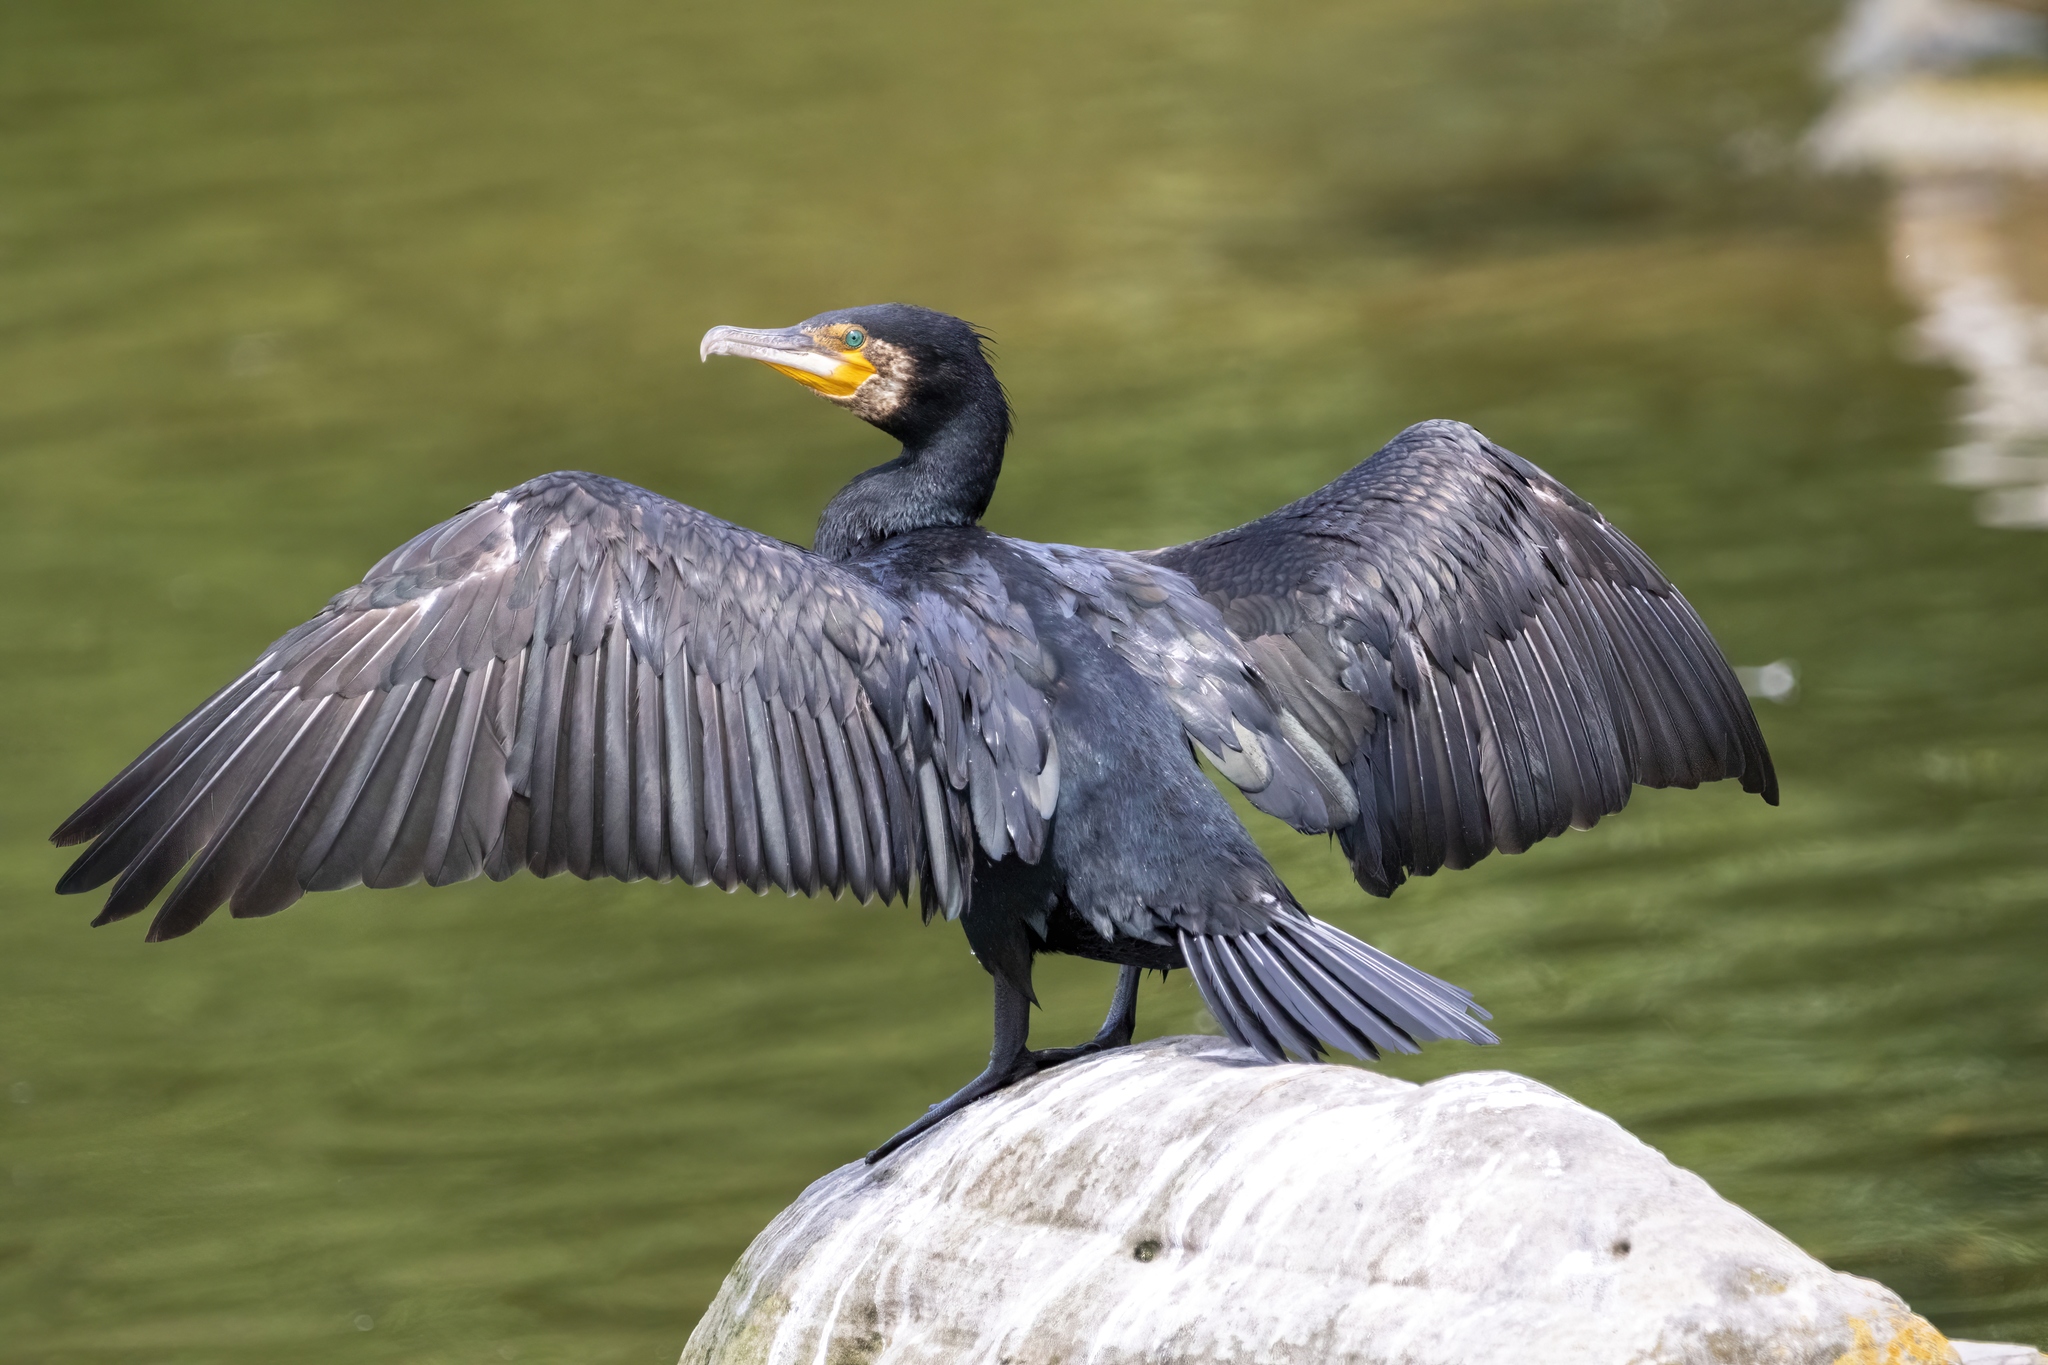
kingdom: Animalia
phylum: Chordata
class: Aves
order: Suliformes
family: Phalacrocoracidae
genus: Phalacrocorax
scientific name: Phalacrocorax carbo
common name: Great cormorant
